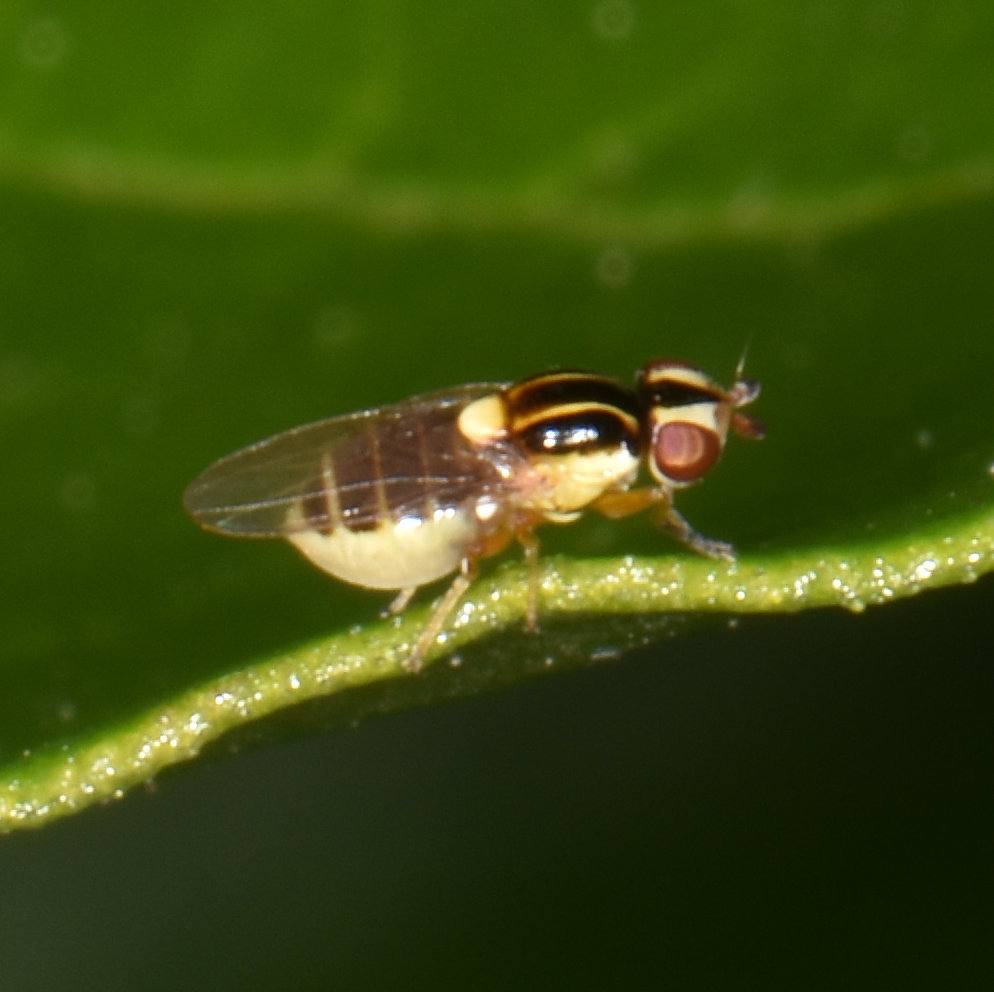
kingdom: Animalia
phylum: Arthropoda
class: Insecta
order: Diptera
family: Chloropidae
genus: Thaumatomyia
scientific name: Thaumatomyia glabra
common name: Chloropid fly
